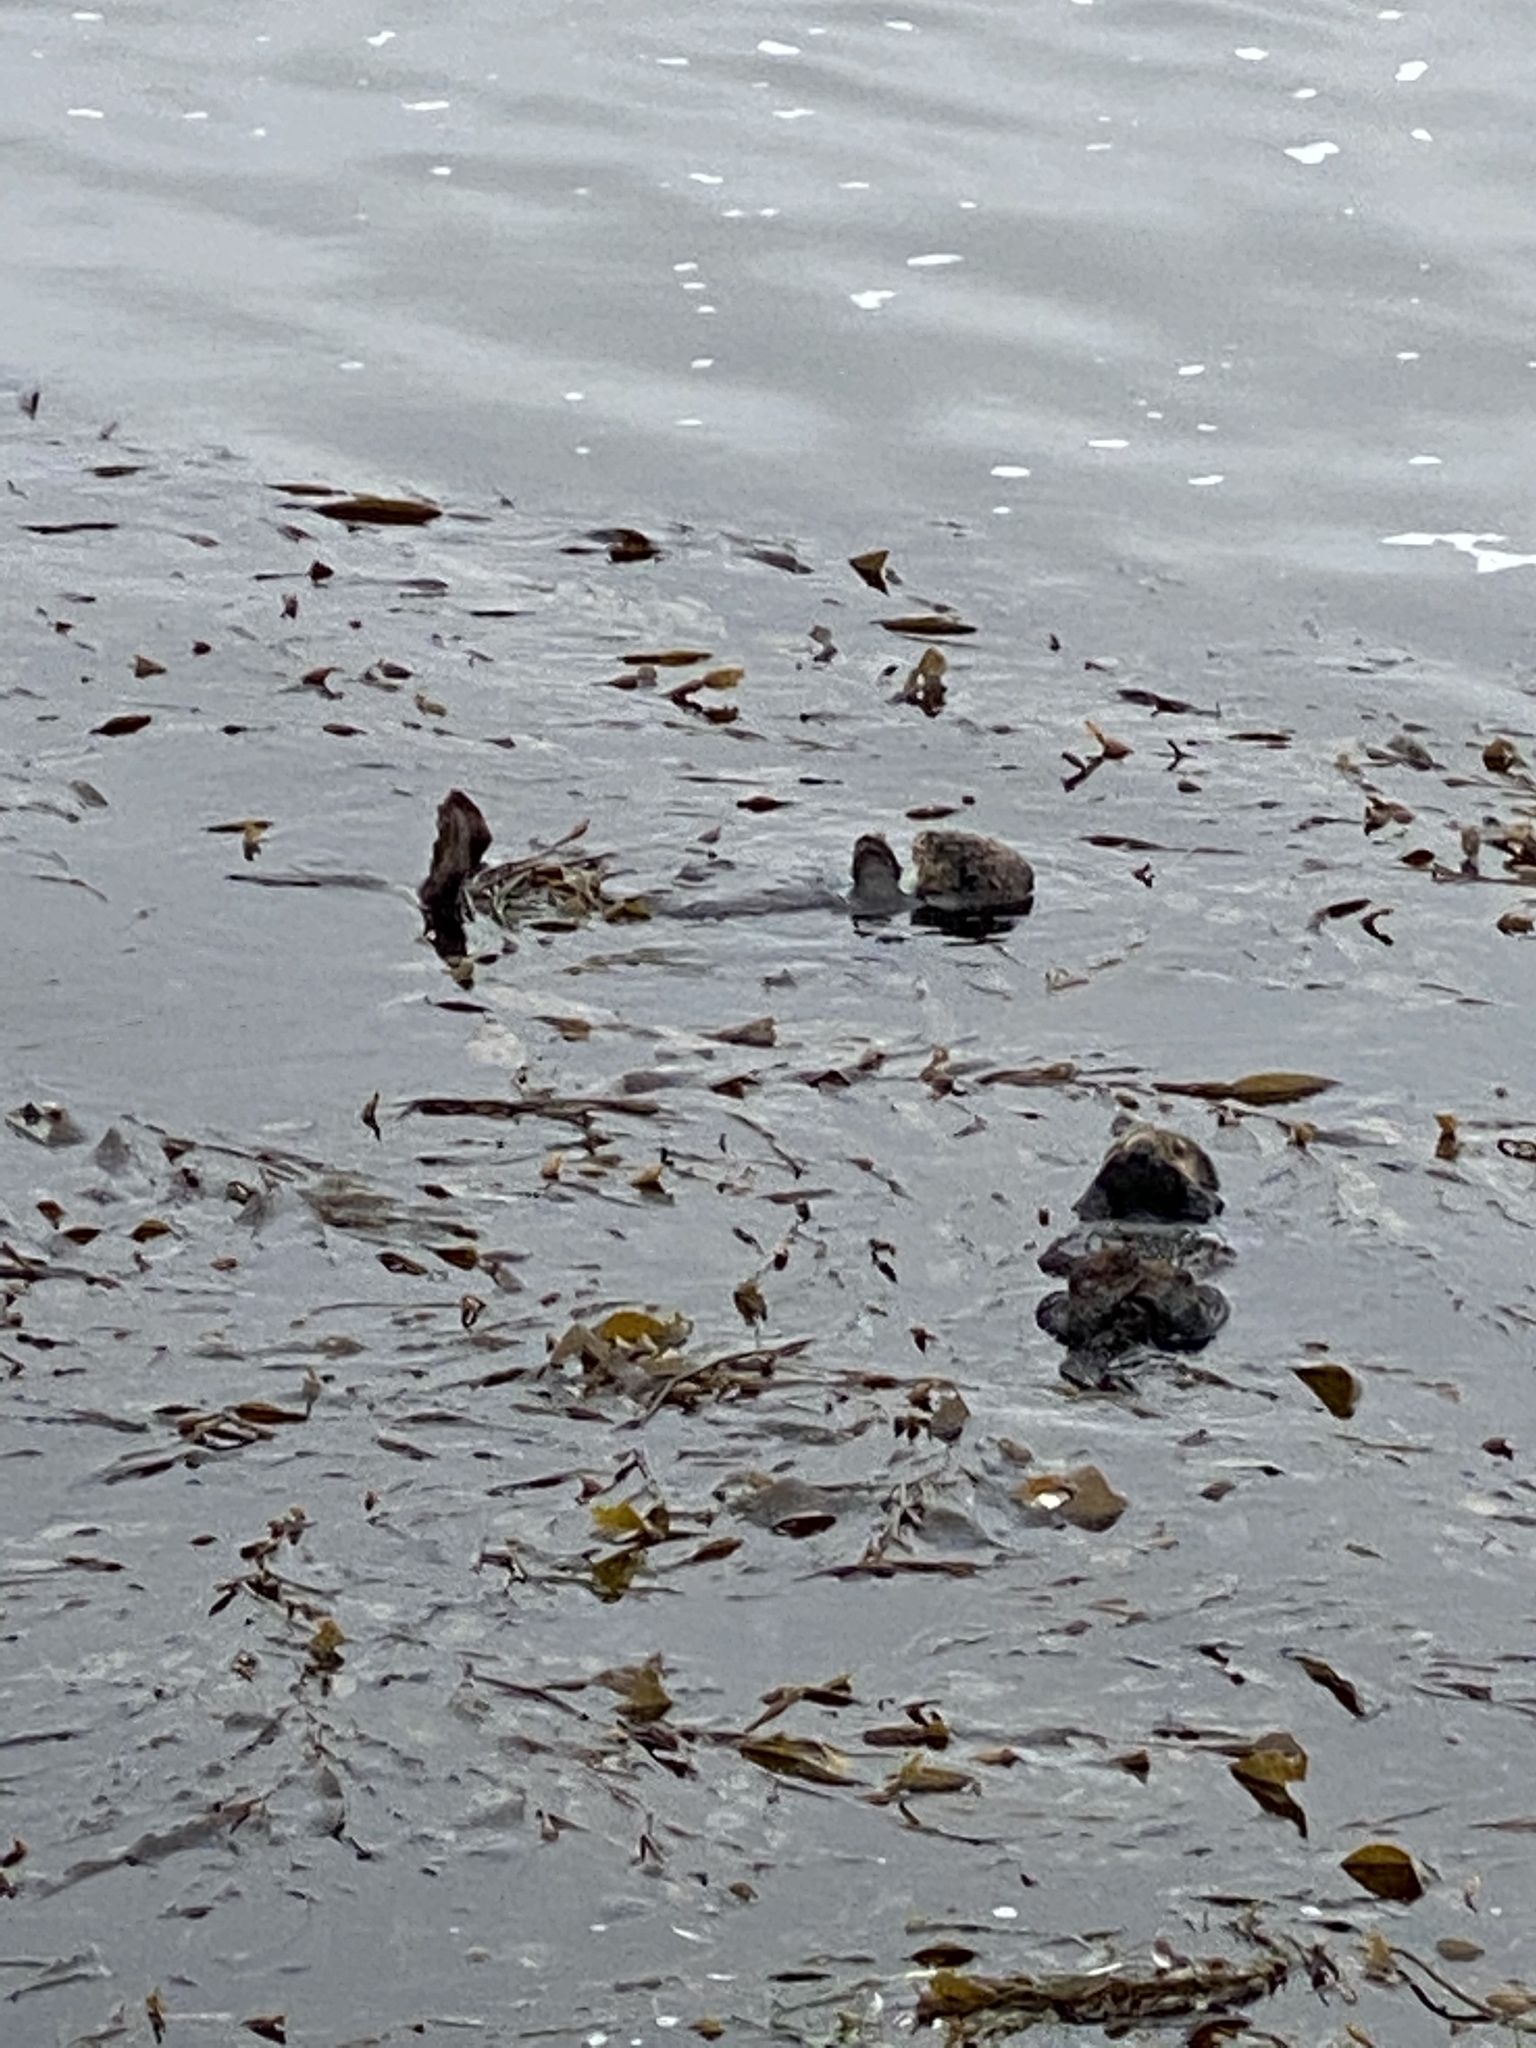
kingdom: Animalia
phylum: Chordata
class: Mammalia
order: Carnivora
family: Mustelidae
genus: Enhydra
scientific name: Enhydra lutris
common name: Sea otter
